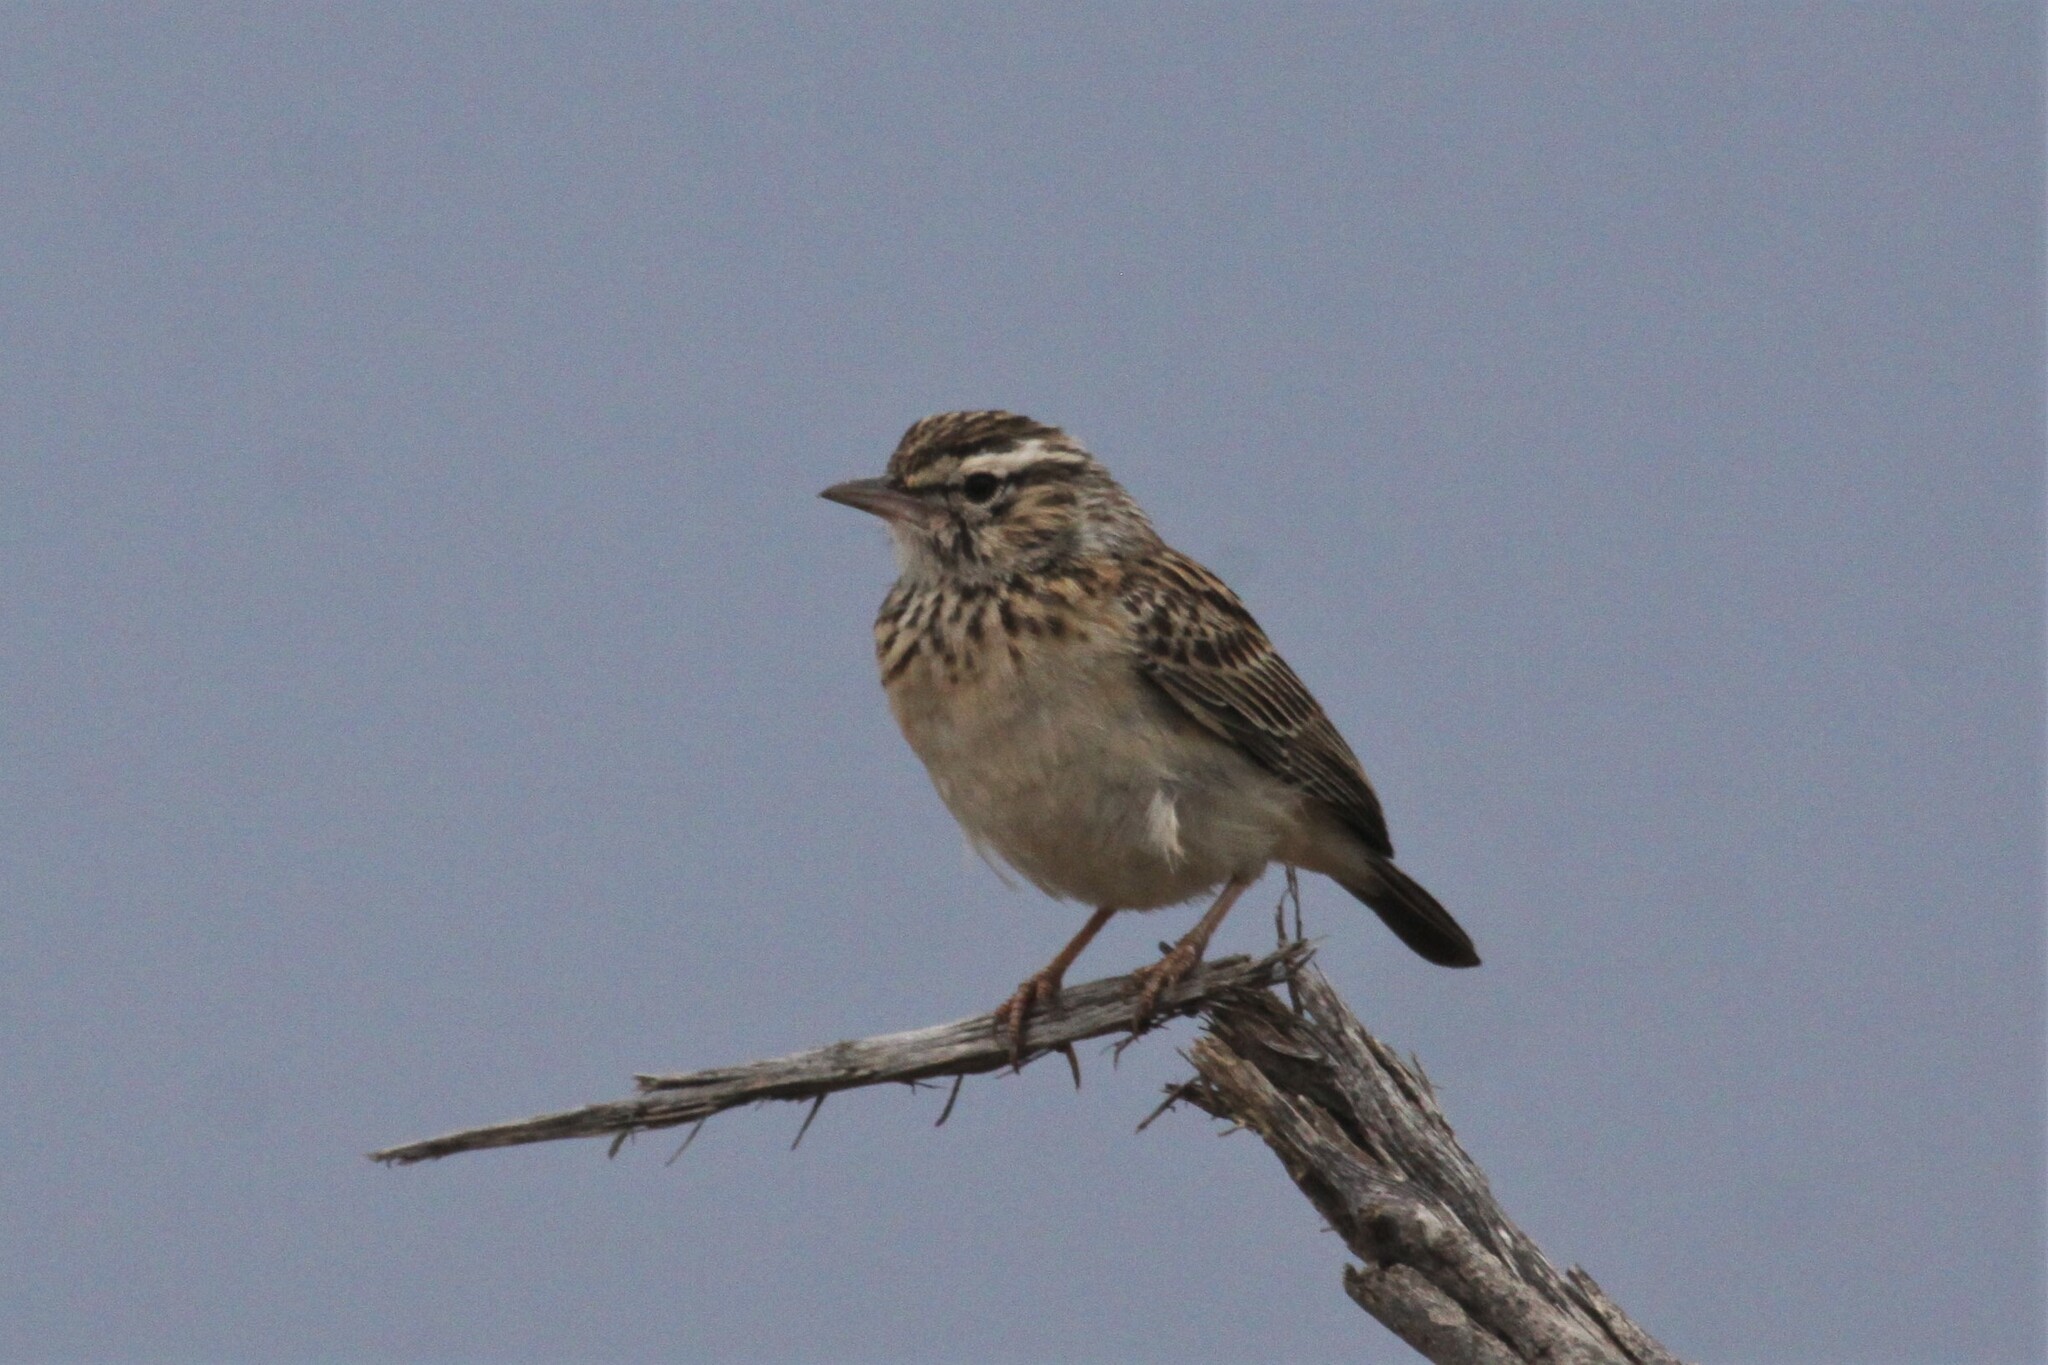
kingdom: Animalia
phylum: Chordata
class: Aves
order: Passeriformes
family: Alaudidae
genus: Calendulauda
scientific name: Calendulauda sabota
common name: Sabota lark
